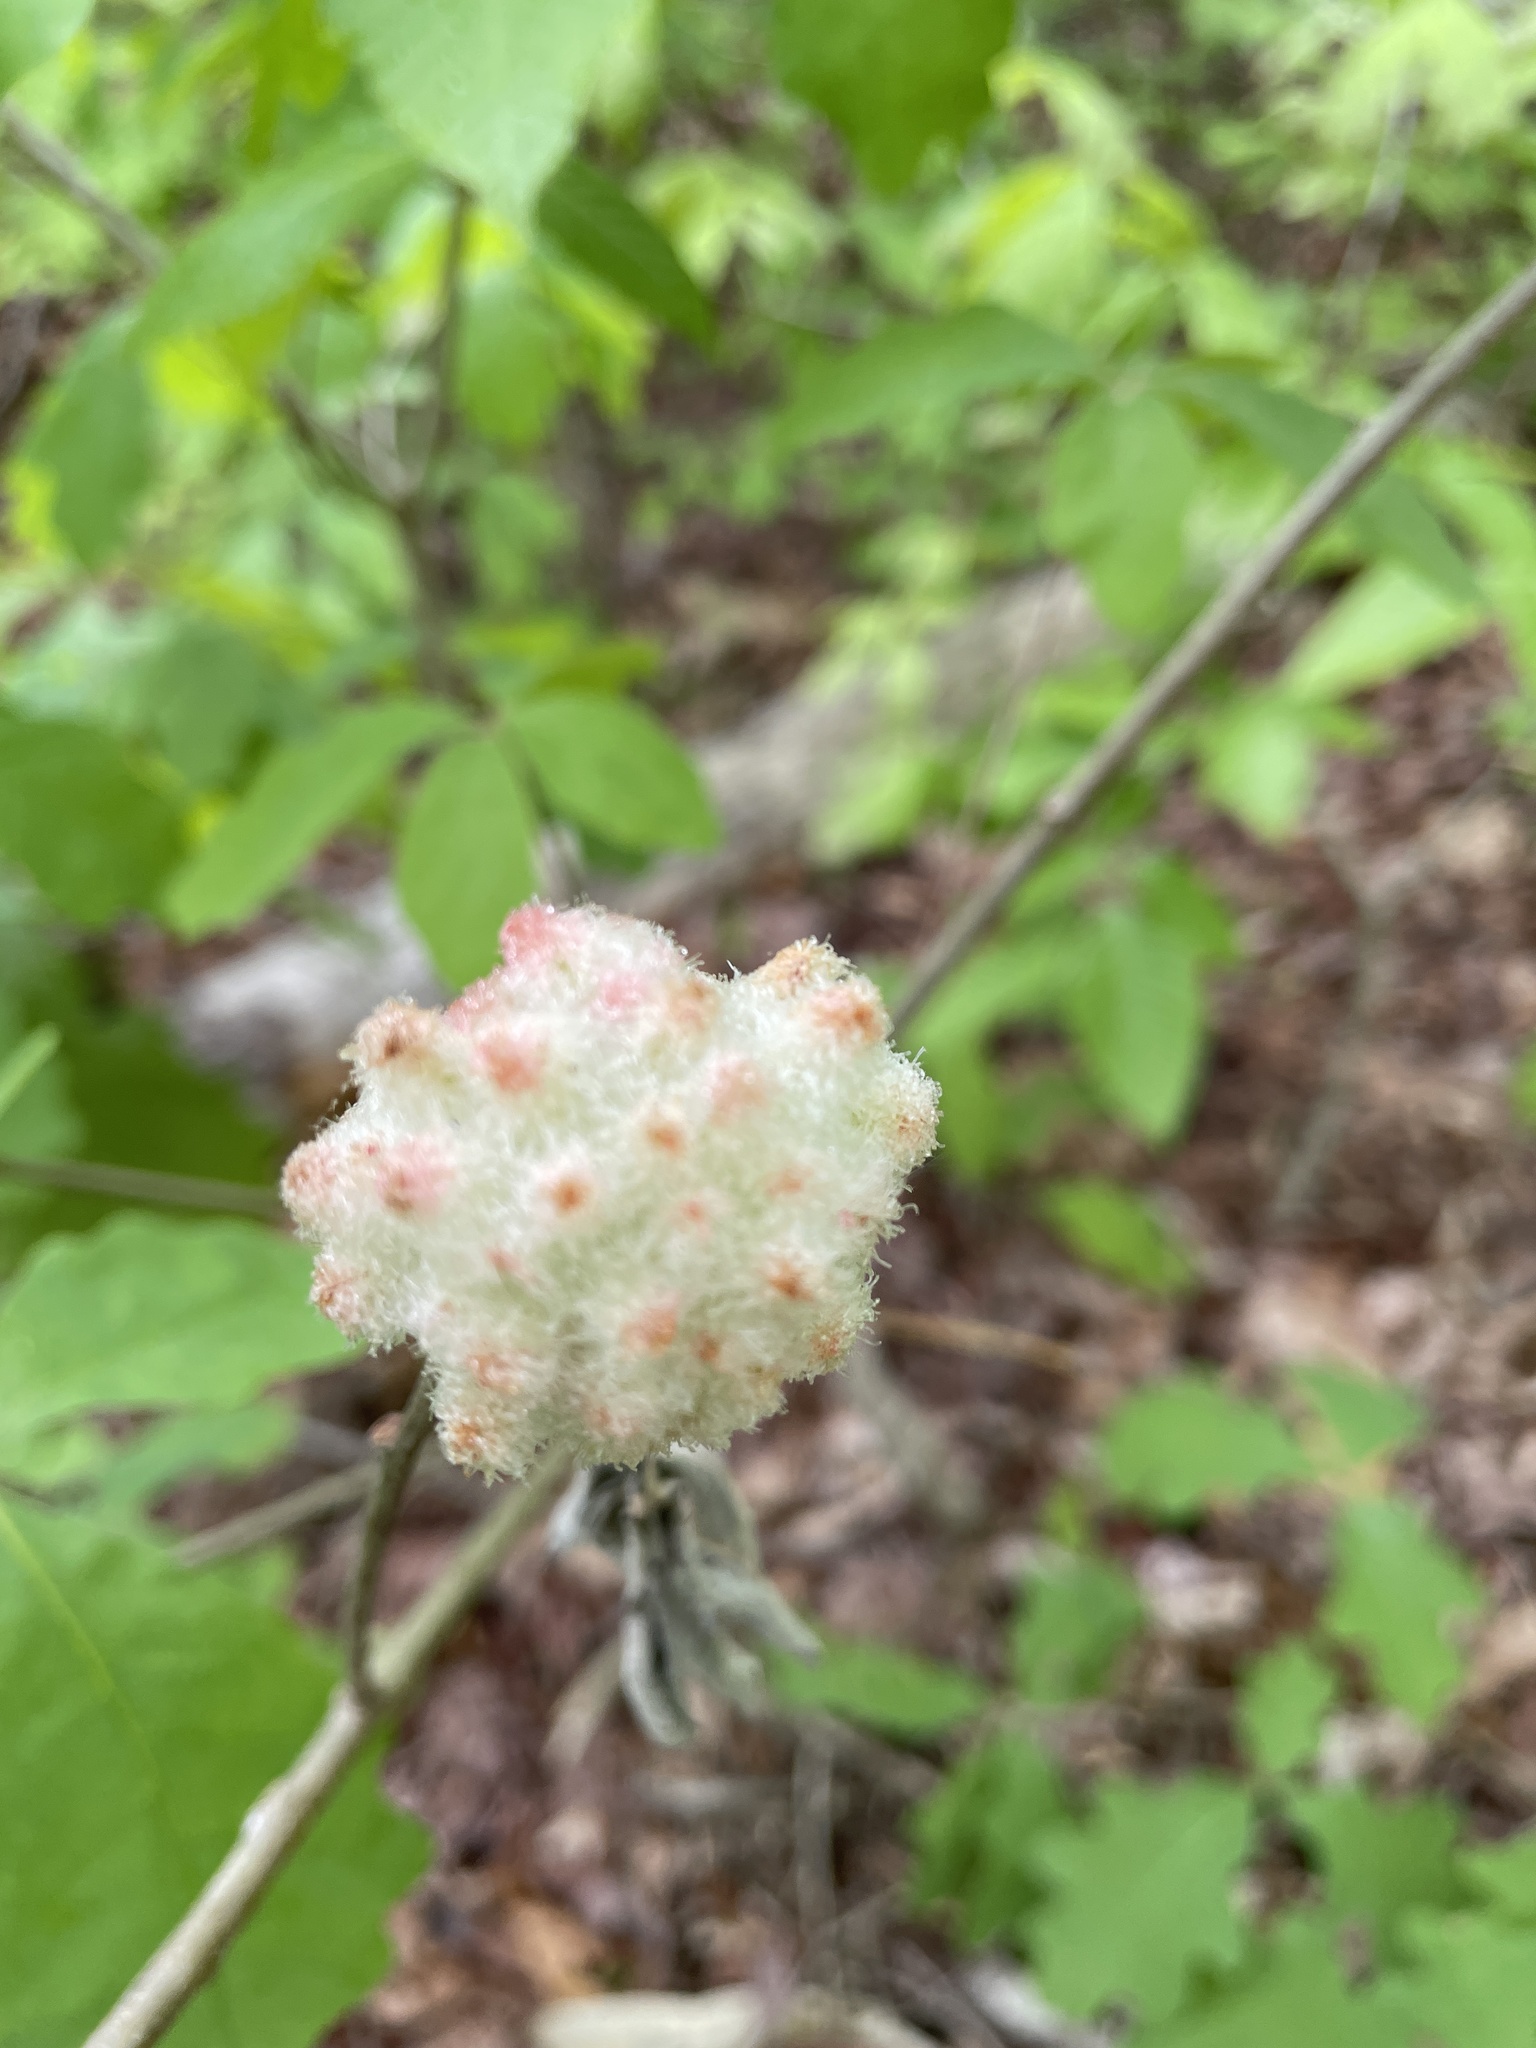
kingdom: Animalia
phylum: Arthropoda
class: Insecta
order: Hymenoptera
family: Cynipidae
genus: Callirhytis
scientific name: Callirhytis
